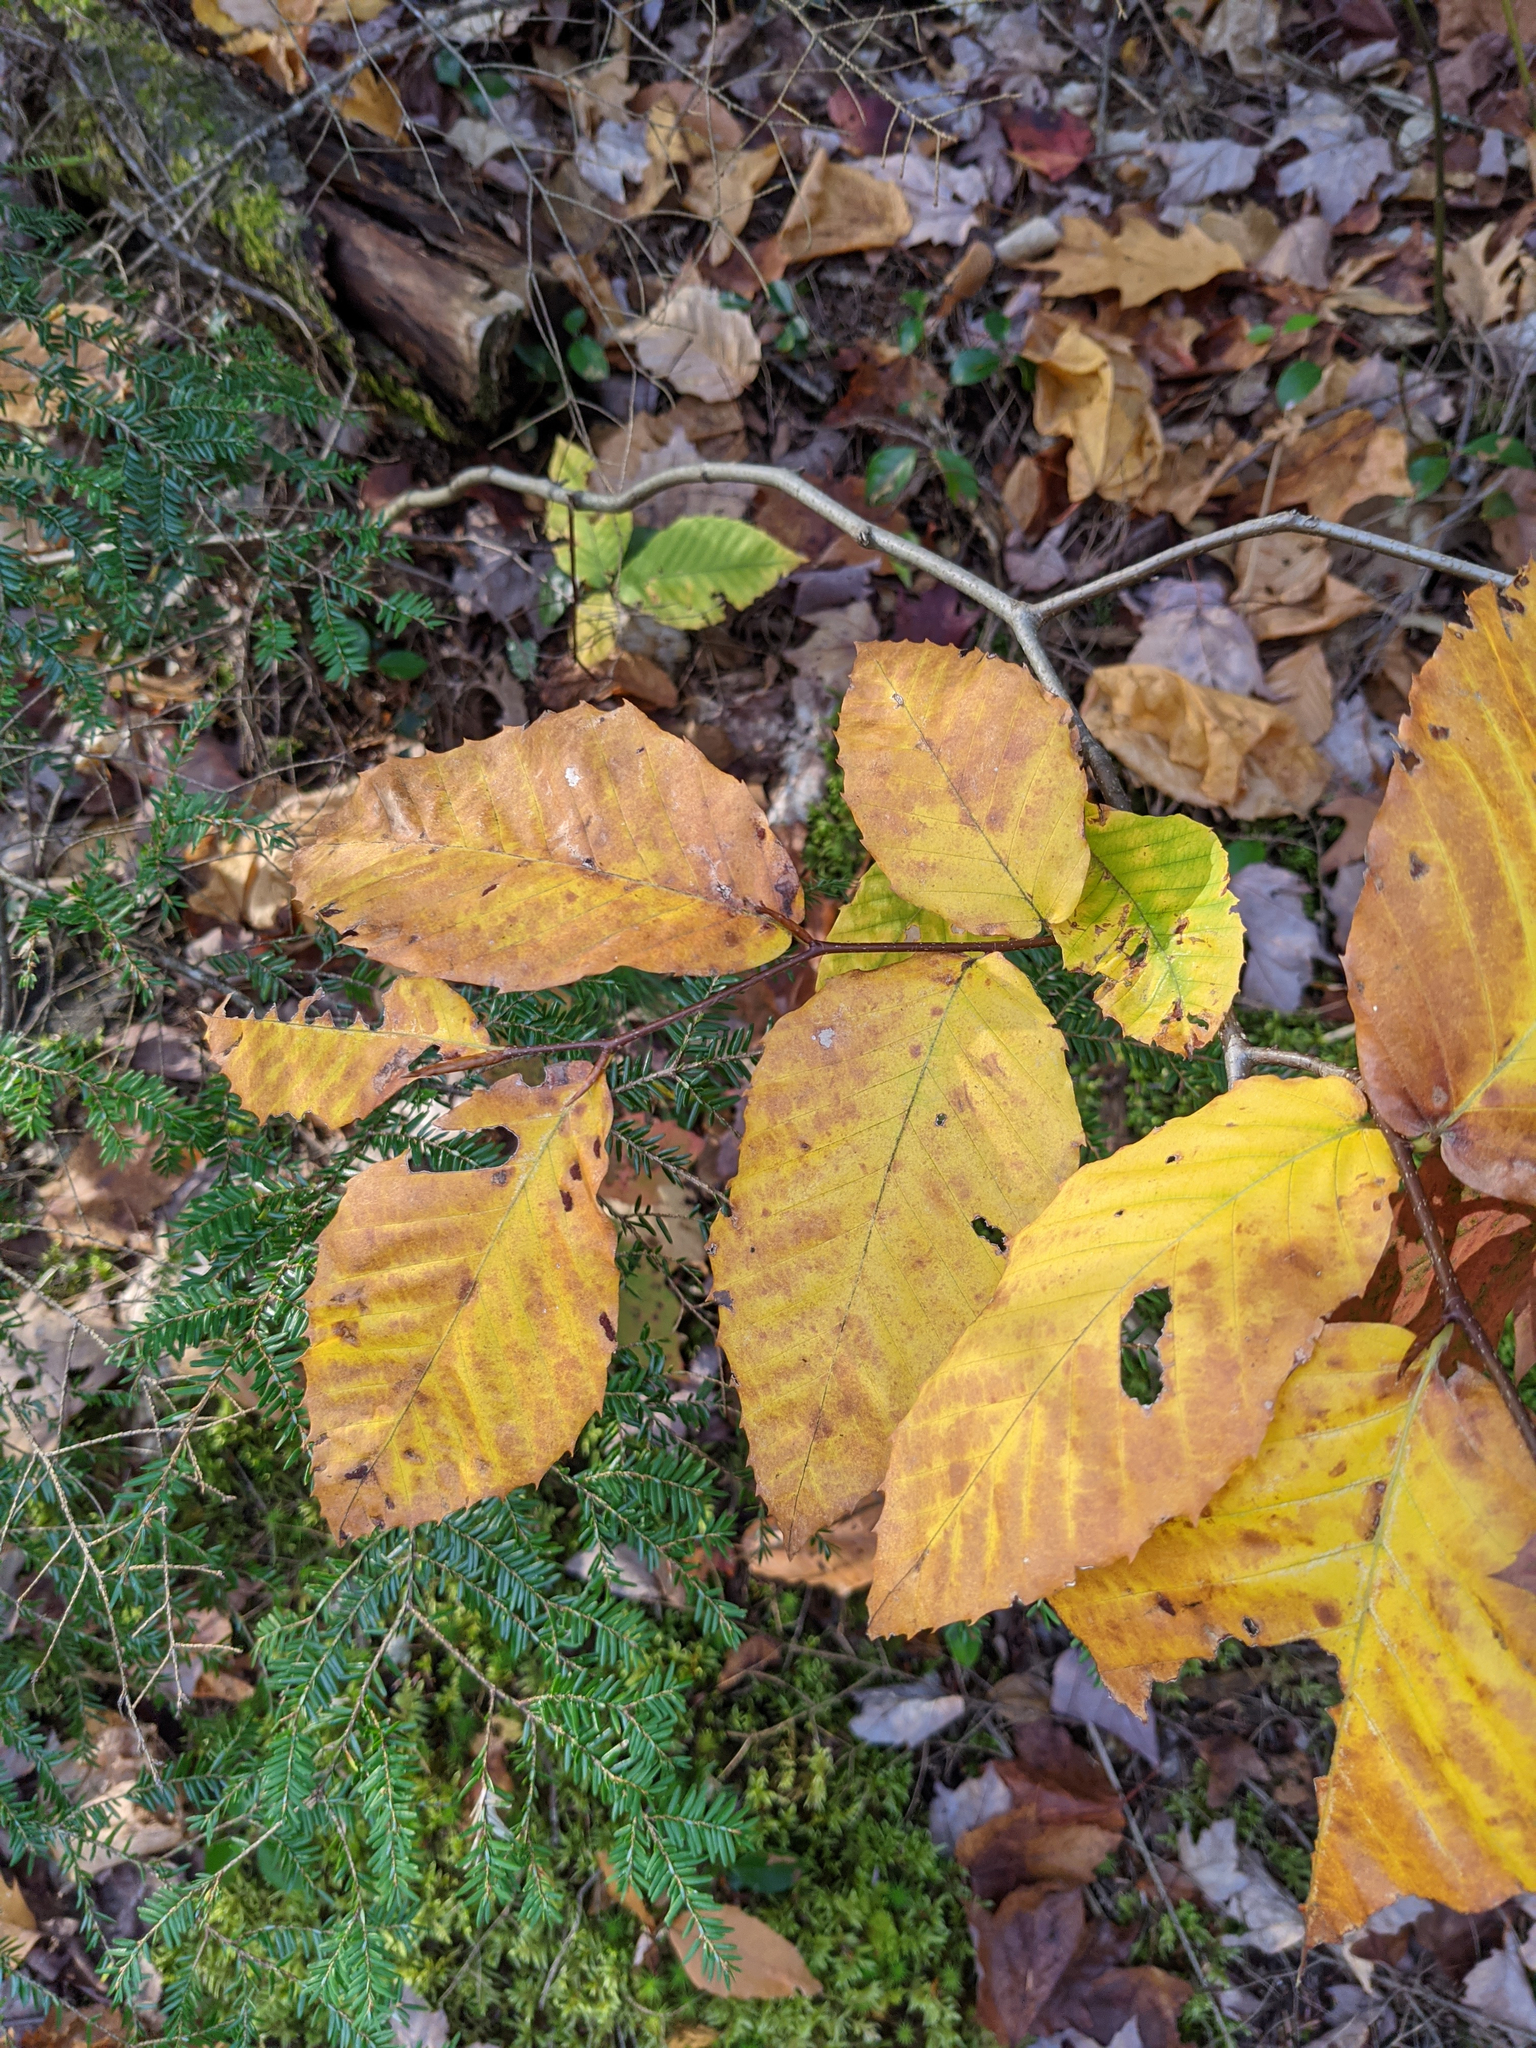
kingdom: Plantae
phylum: Tracheophyta
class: Magnoliopsida
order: Fagales
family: Fagaceae
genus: Fagus
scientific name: Fagus grandifolia
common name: American beech
